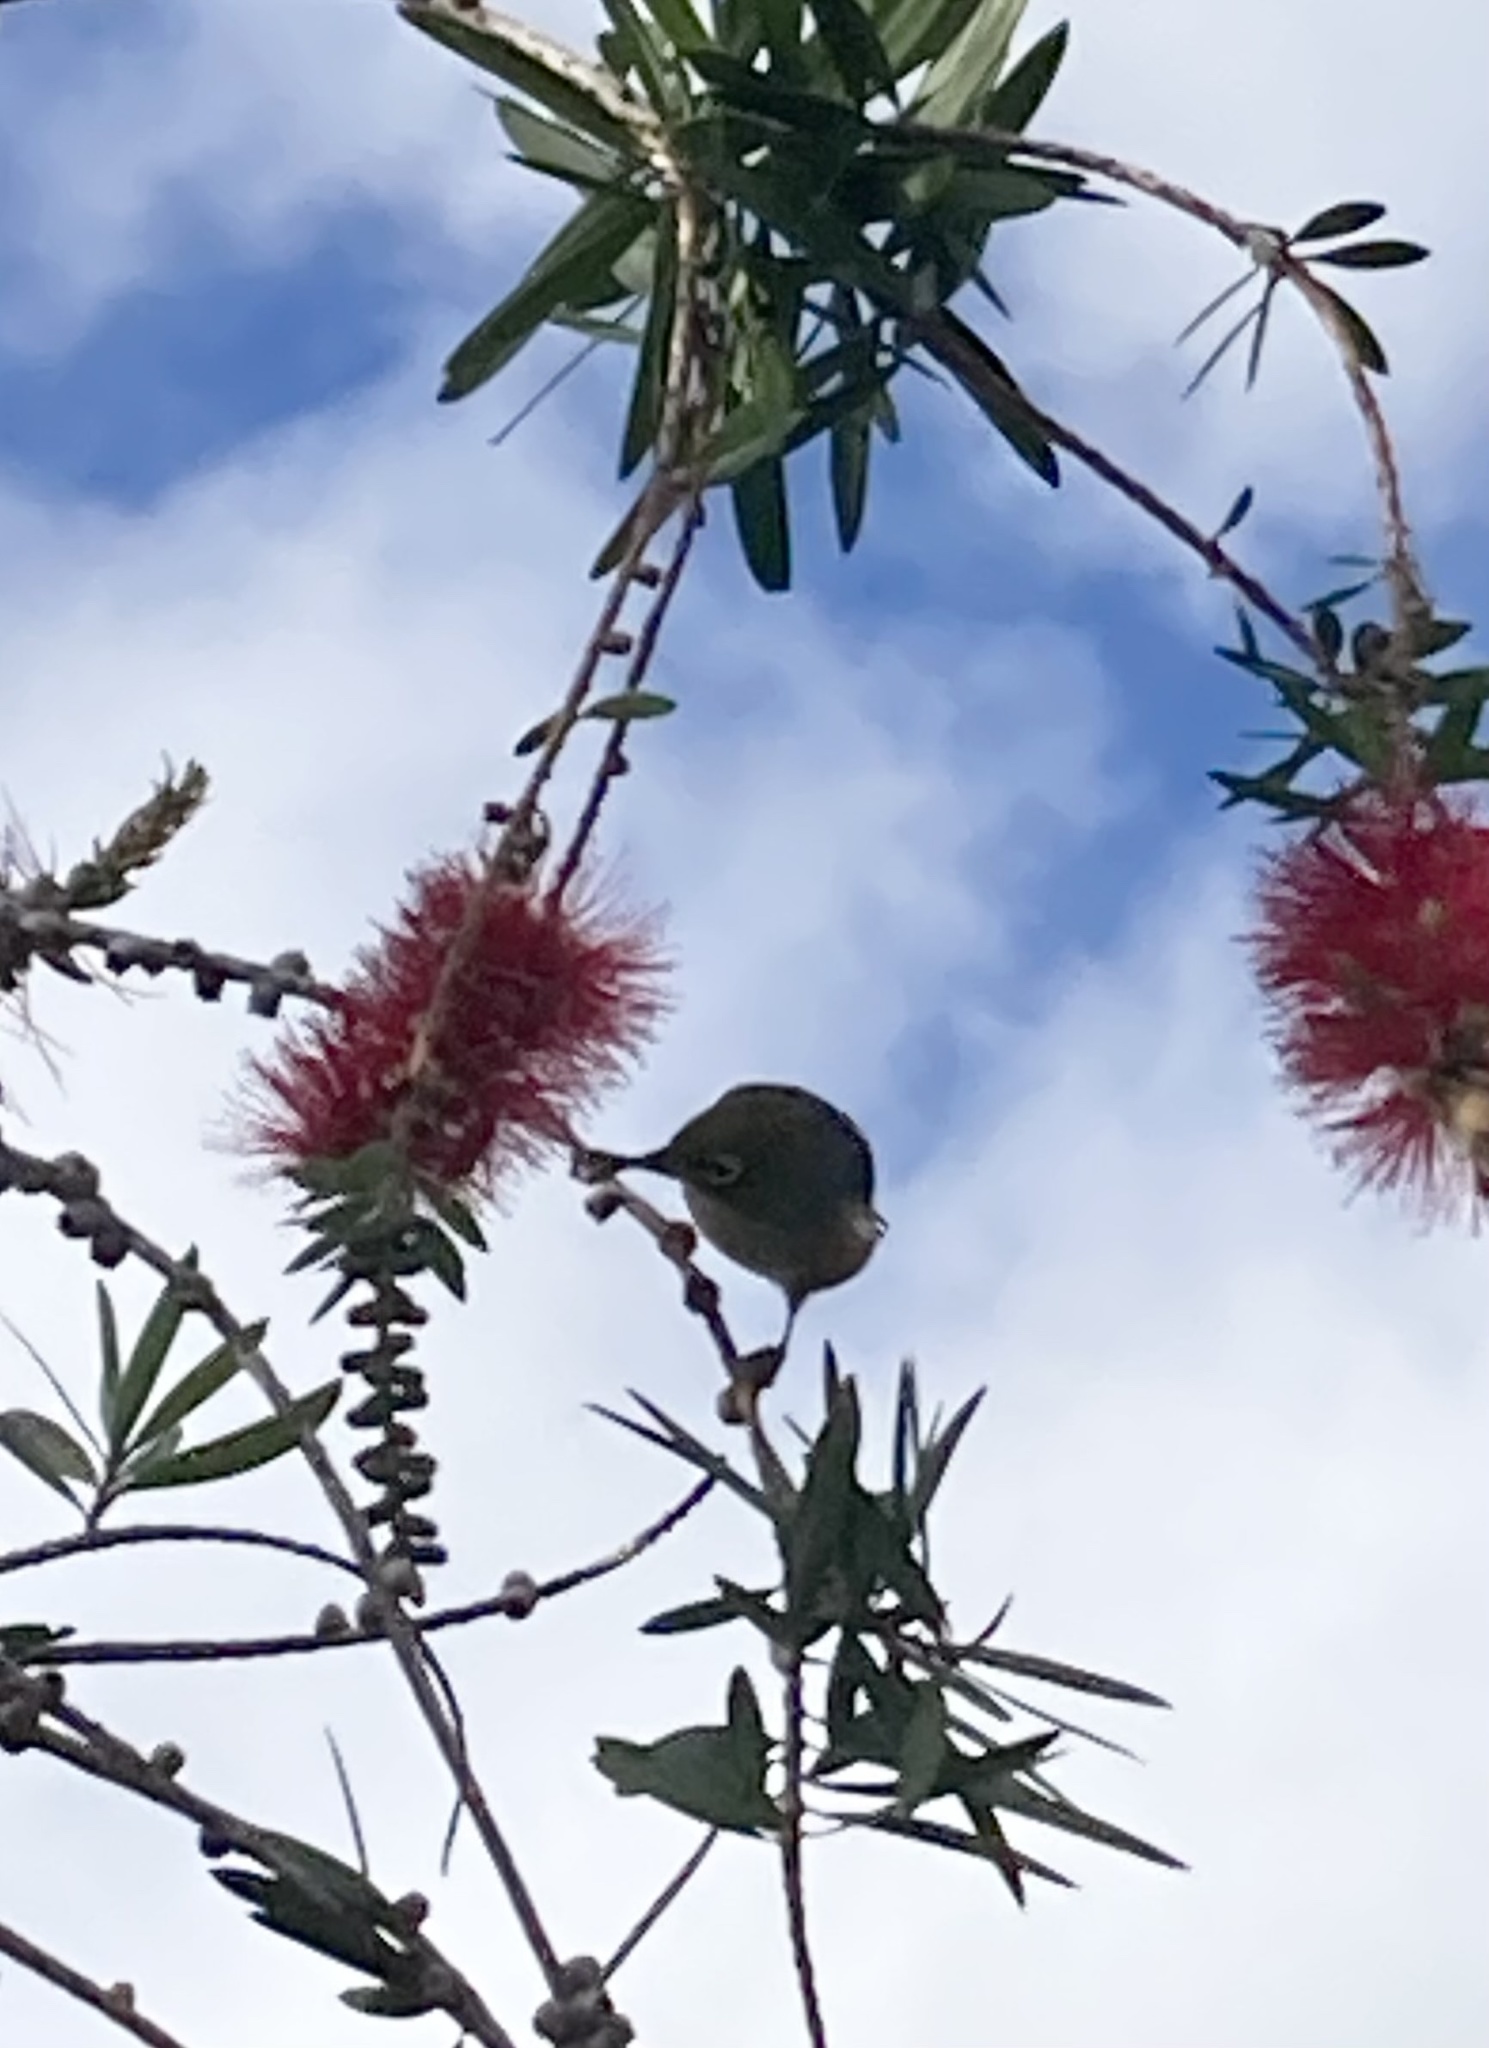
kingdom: Animalia
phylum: Chordata
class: Aves
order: Passeriformes
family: Zosteropidae
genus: Zosterops
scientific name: Zosterops lateralis
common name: Silvereye
